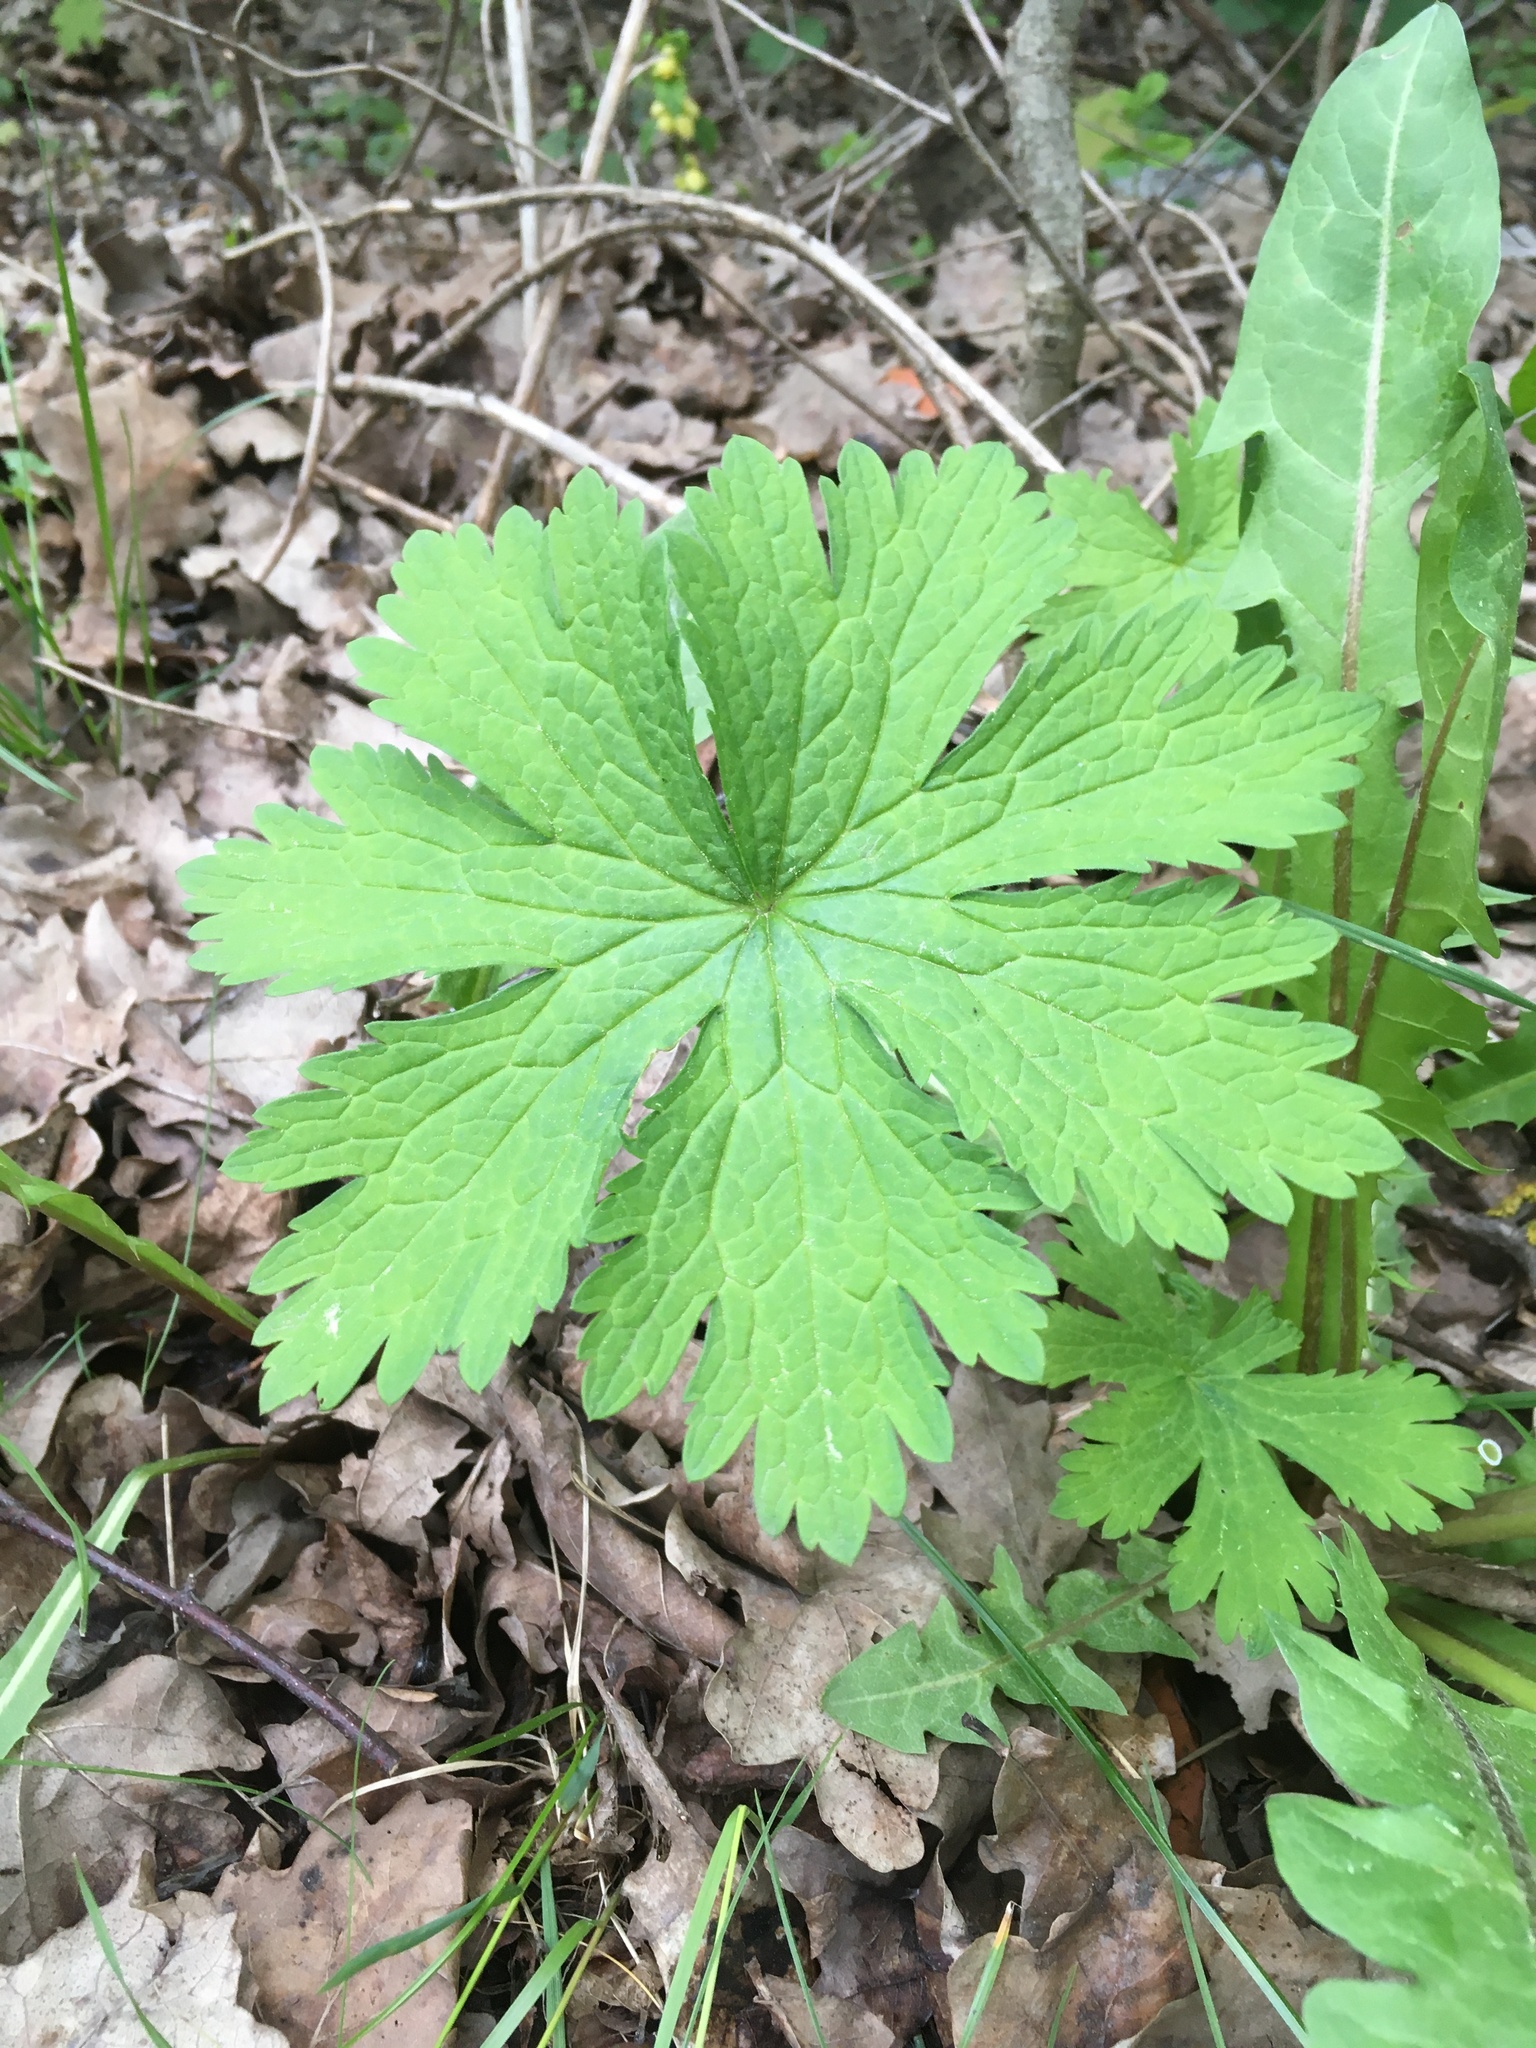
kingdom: Plantae
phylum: Tracheophyta
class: Magnoliopsida
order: Geraniales
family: Geraniaceae
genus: Geranium
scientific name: Geranium sylvaticum
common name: Wood crane's-bill
